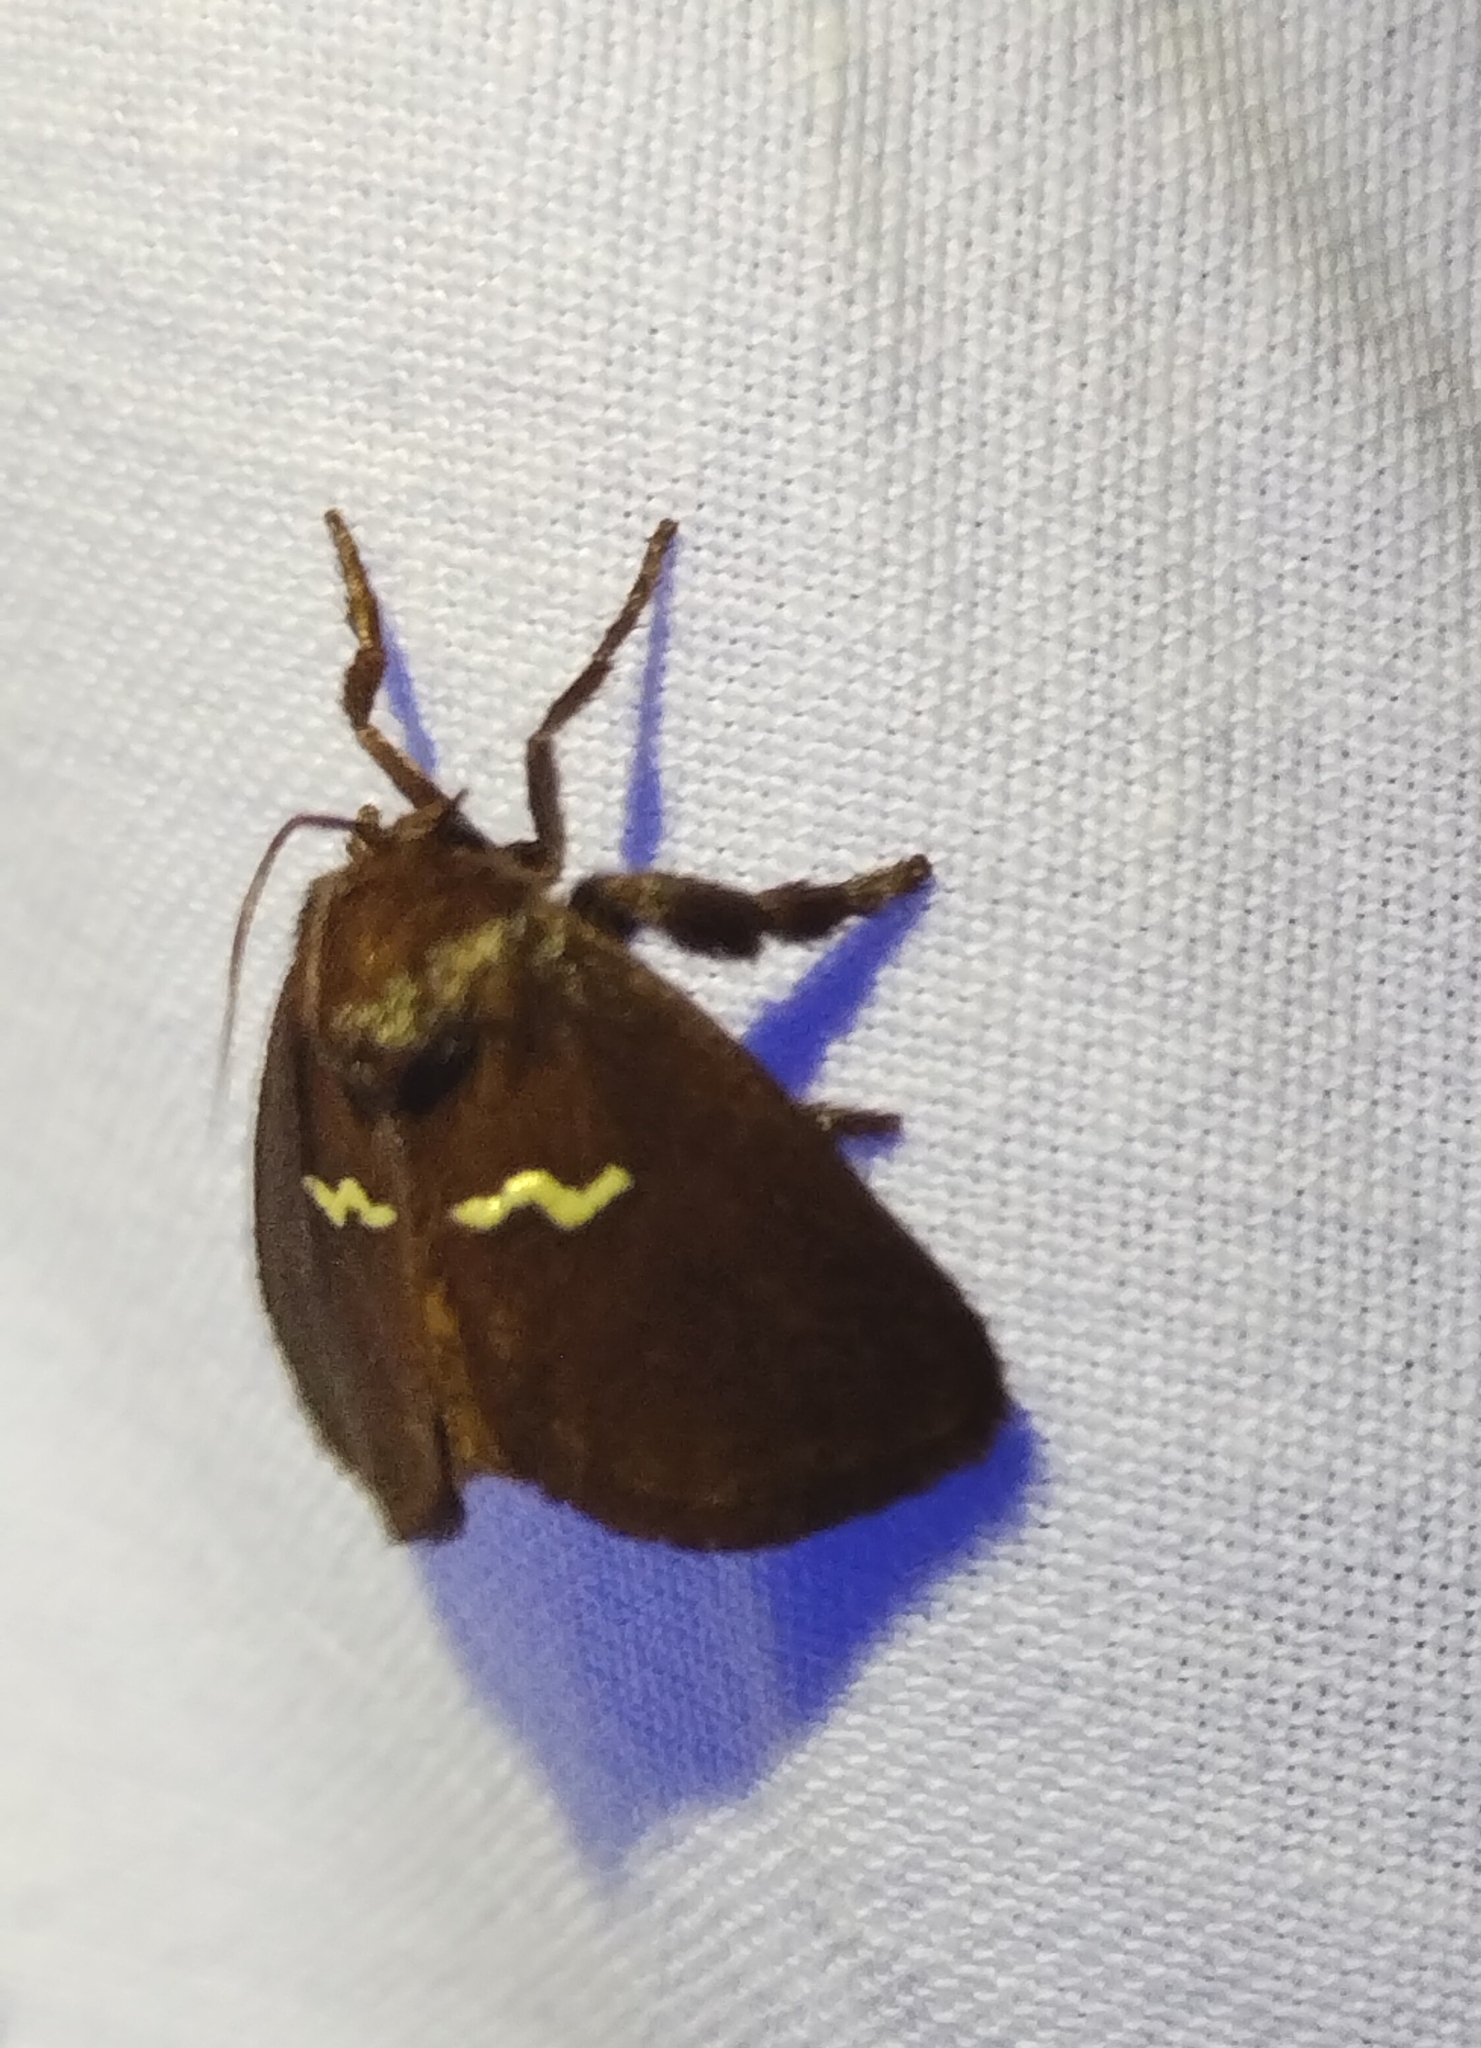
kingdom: Animalia
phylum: Arthropoda
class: Insecta
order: Lepidoptera
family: Limacodidae
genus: Monoleuca
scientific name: Monoleuca semifascia
